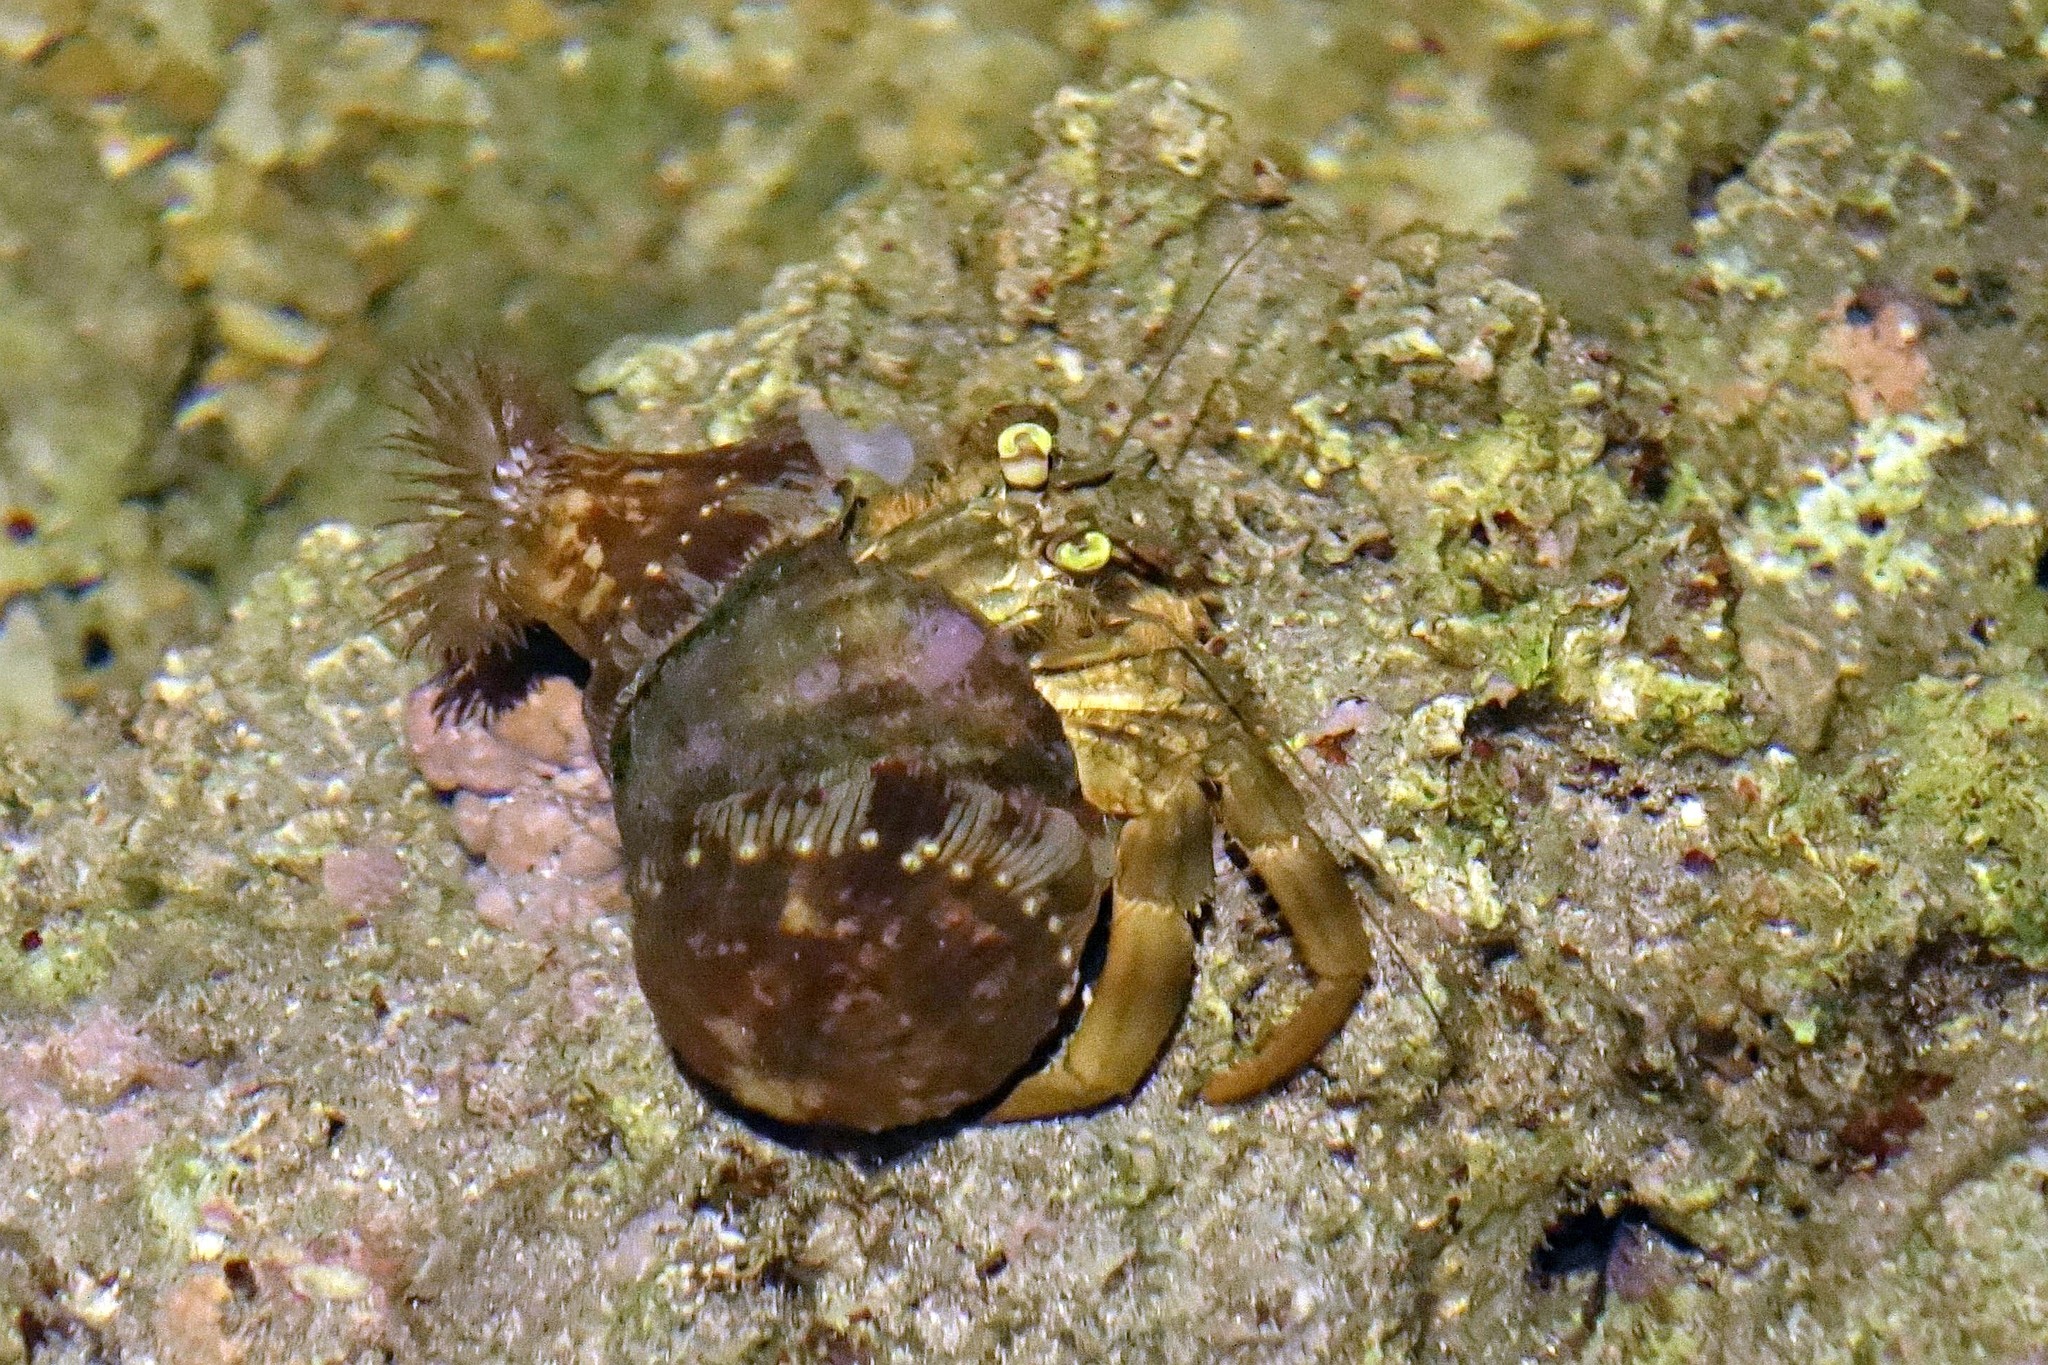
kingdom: Animalia
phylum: Arthropoda
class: Malacostraca
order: Decapoda
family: Diogenidae
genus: Dardanus
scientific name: Dardanus deformis
